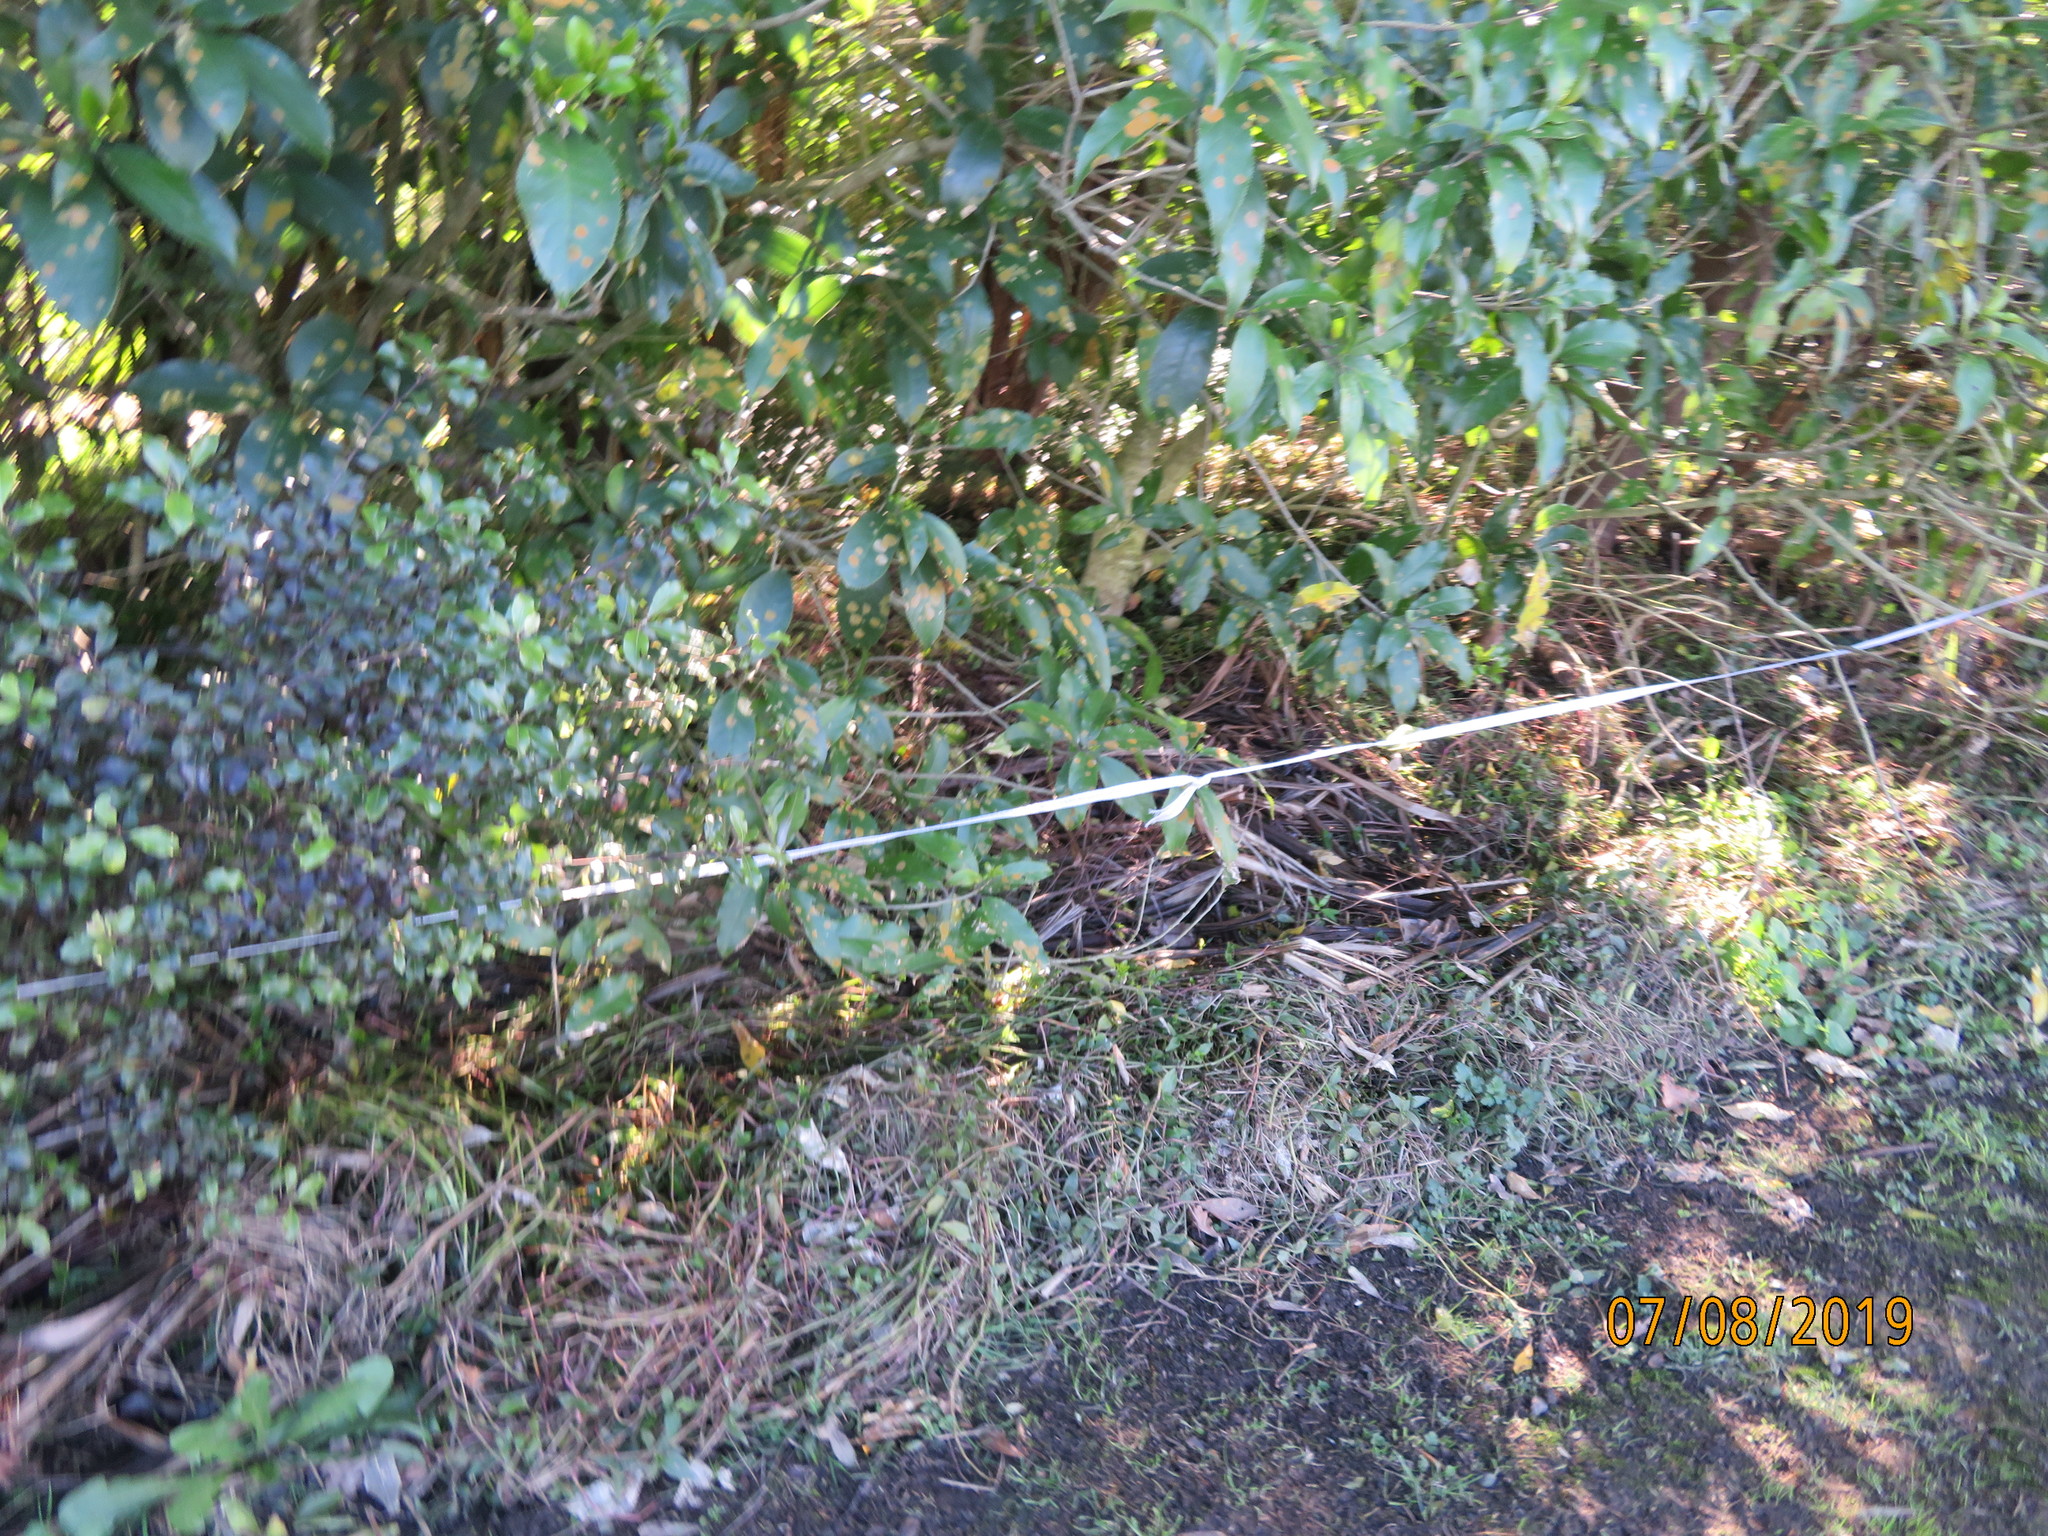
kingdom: Plantae
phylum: Tracheophyta
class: Magnoliopsida
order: Malpighiales
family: Violaceae
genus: Melicytus
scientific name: Melicytus ramiflorus
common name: Mahoe
